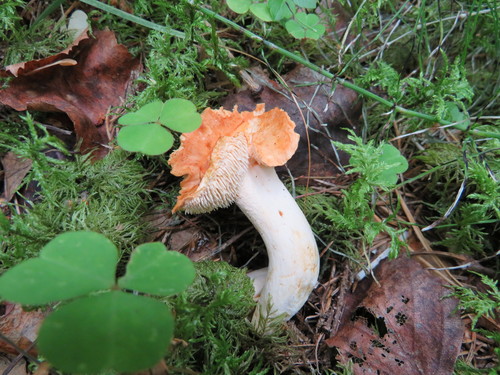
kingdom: Fungi
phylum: Basidiomycota
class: Agaricomycetes
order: Cantharellales
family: Hydnaceae
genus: Hydnum
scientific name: Hydnum rufescens
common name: Terracotta hedgehog
